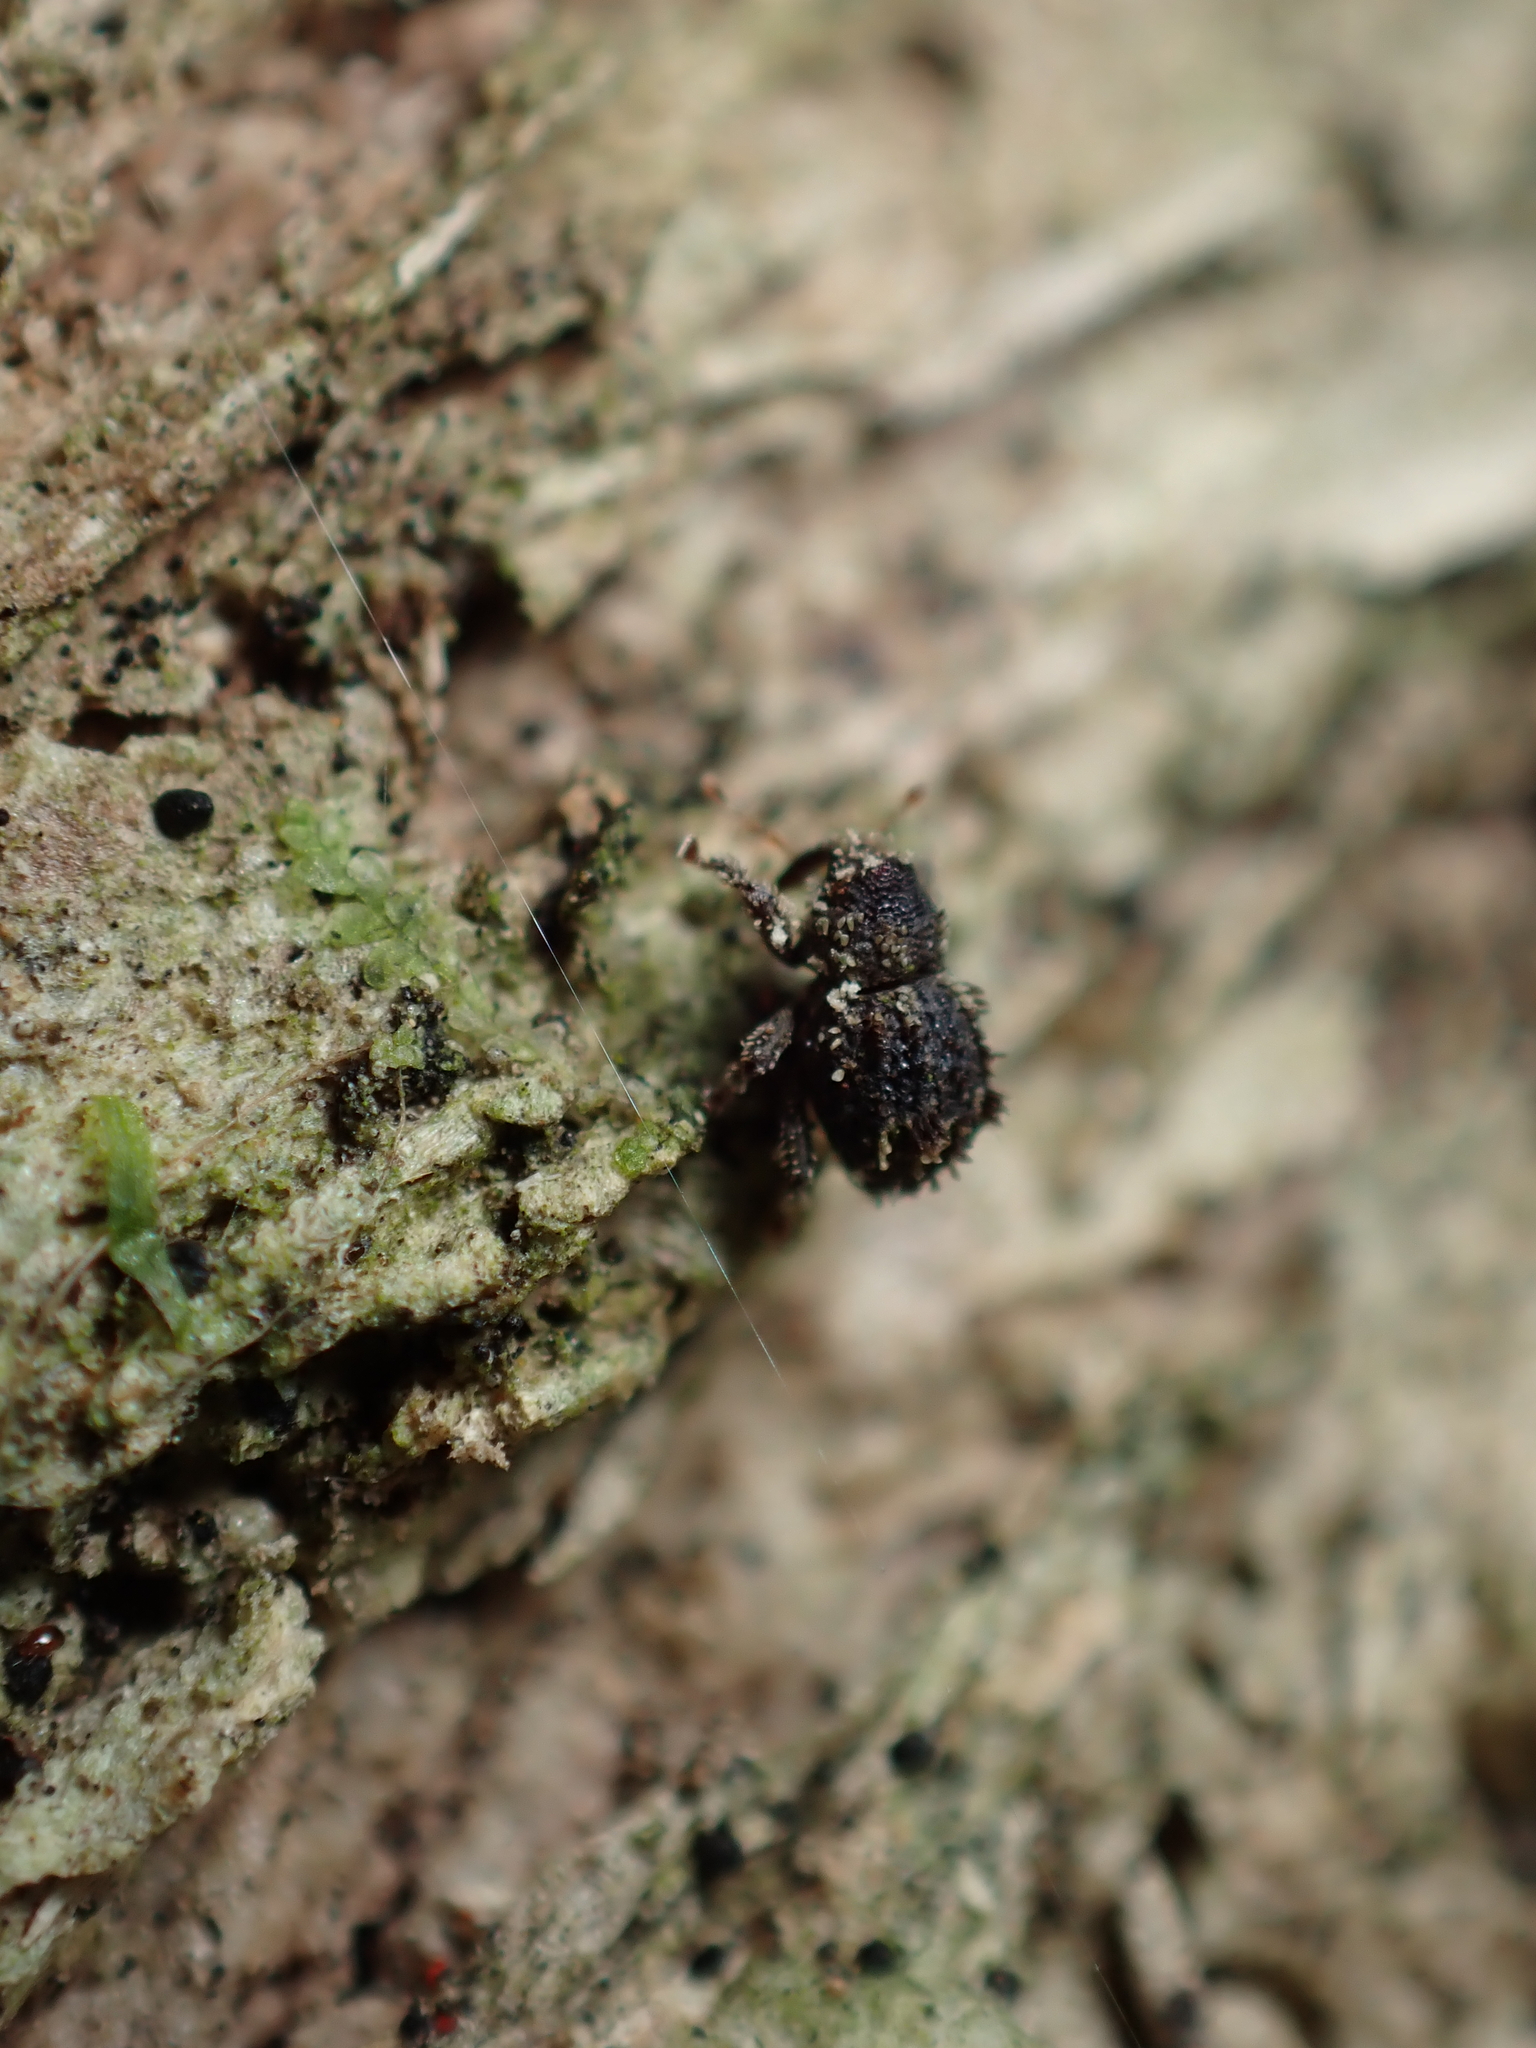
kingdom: Animalia
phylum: Arthropoda
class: Insecta
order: Coleoptera
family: Curculionidae
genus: Andracalles
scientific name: Andracalles horridus
